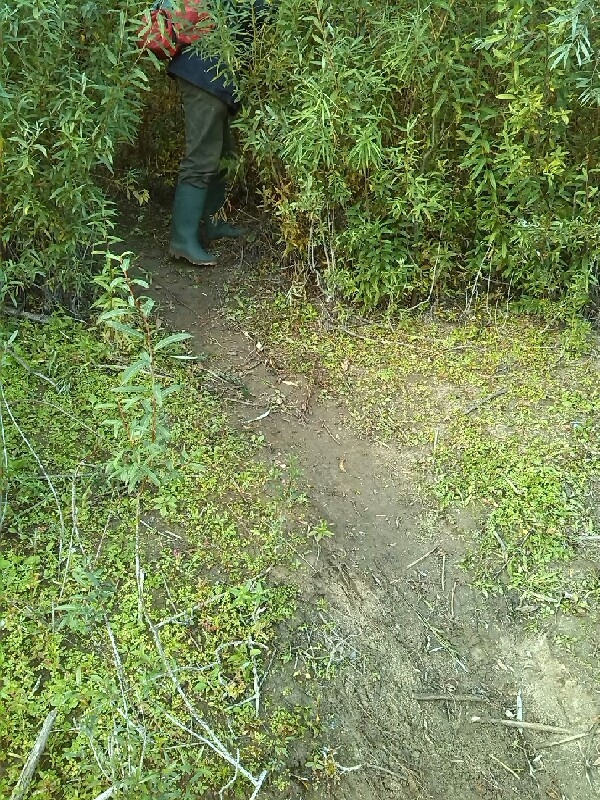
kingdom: Animalia
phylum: Chordata
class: Mammalia
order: Rodentia
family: Castoridae
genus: Castor
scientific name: Castor fiber
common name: Eurasian beaver
